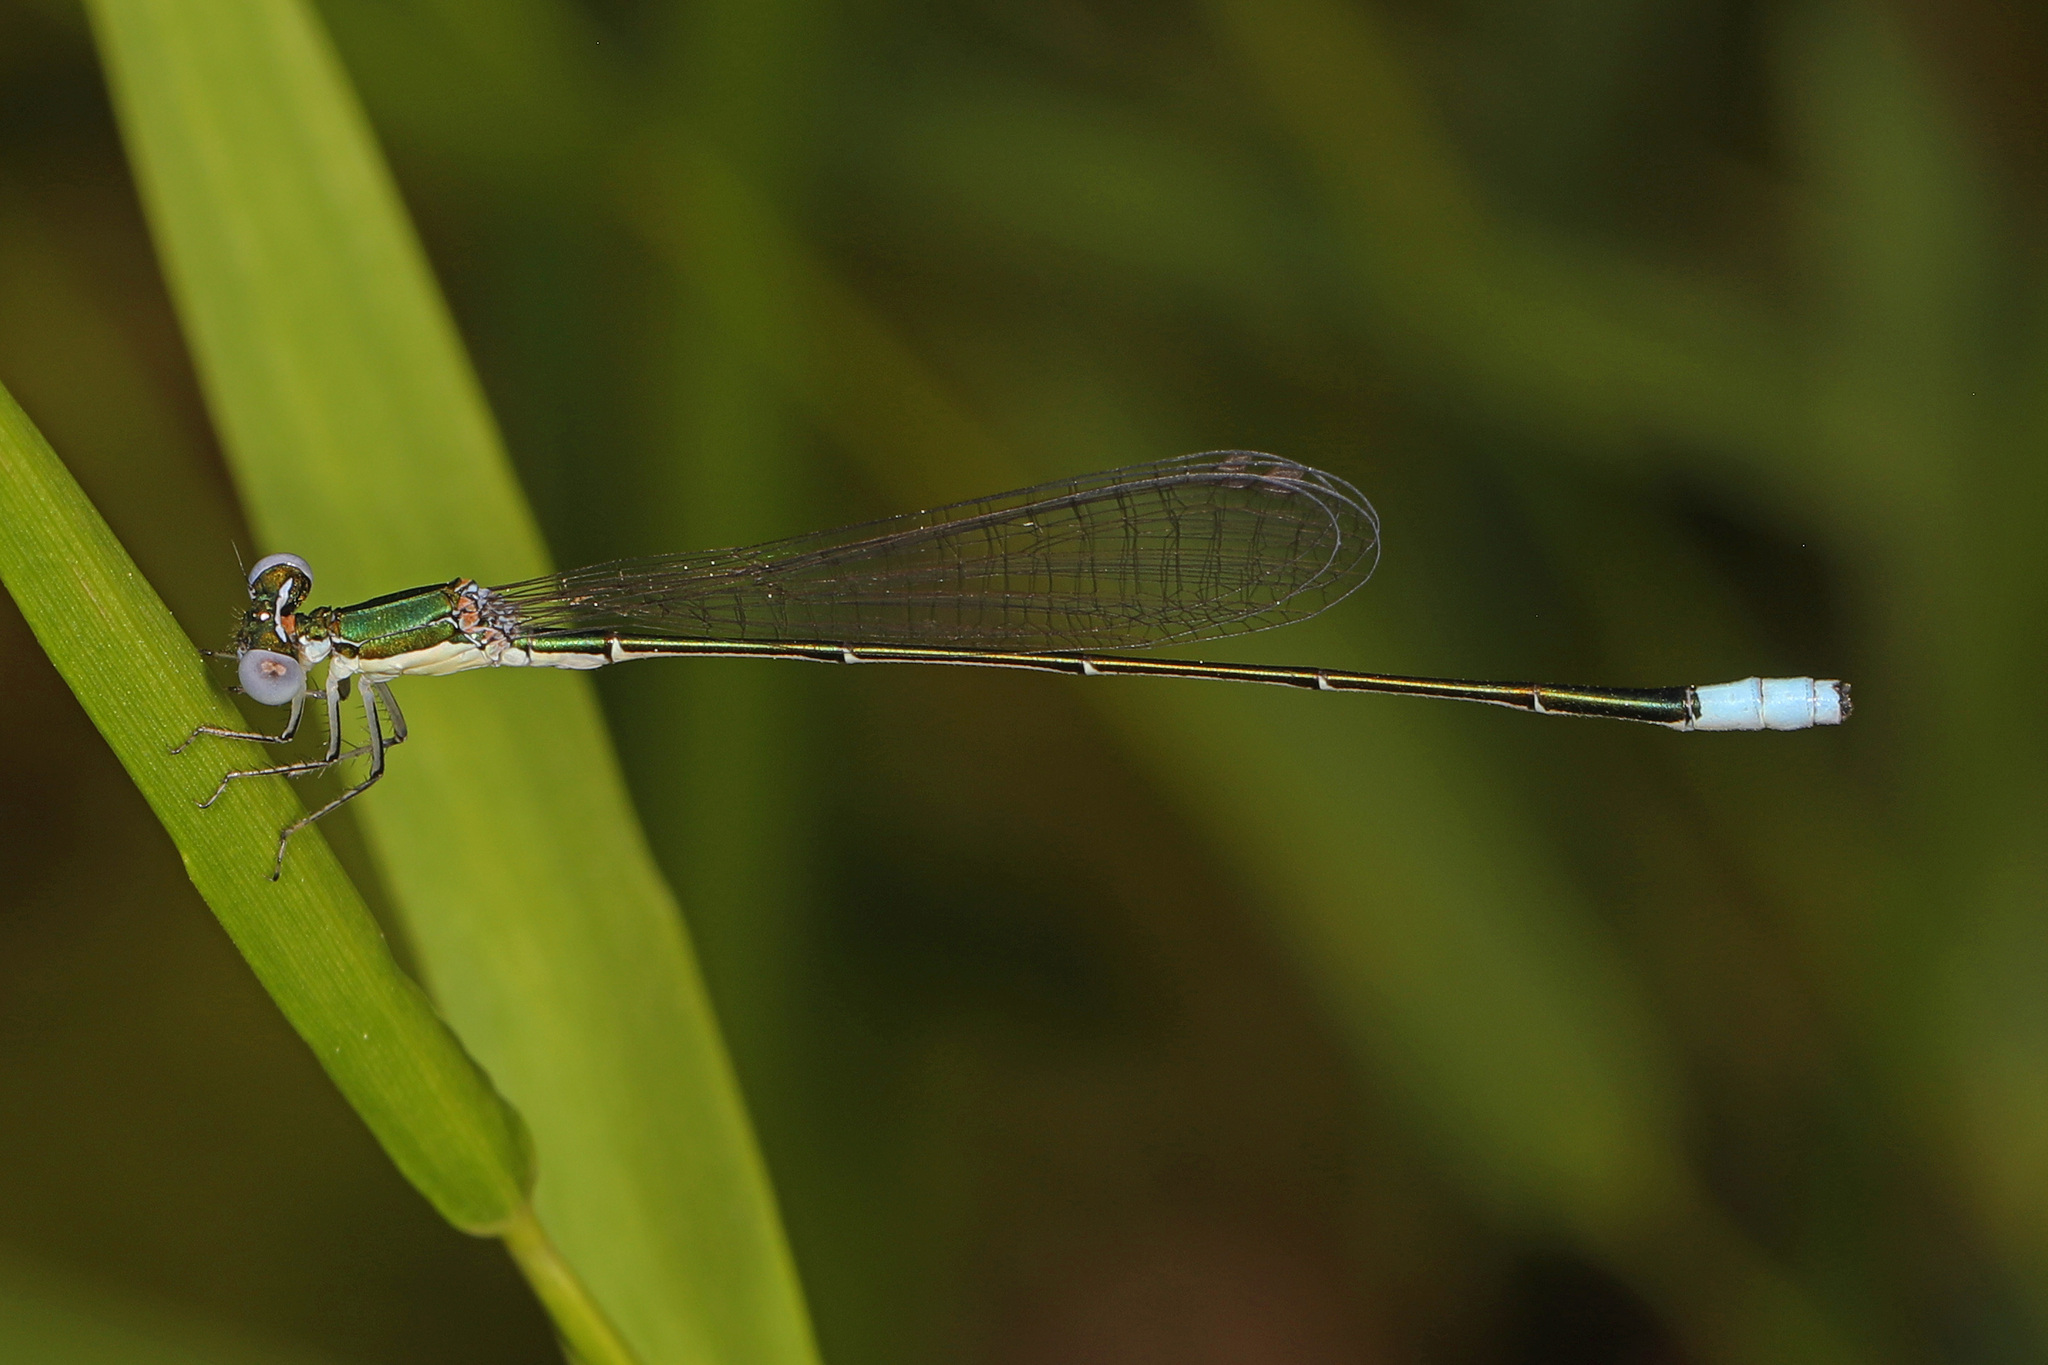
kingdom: Animalia
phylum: Arthropoda
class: Insecta
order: Odonata
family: Coenagrionidae
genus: Nehalennia
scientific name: Nehalennia gracilis
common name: Sphagnum sprite
